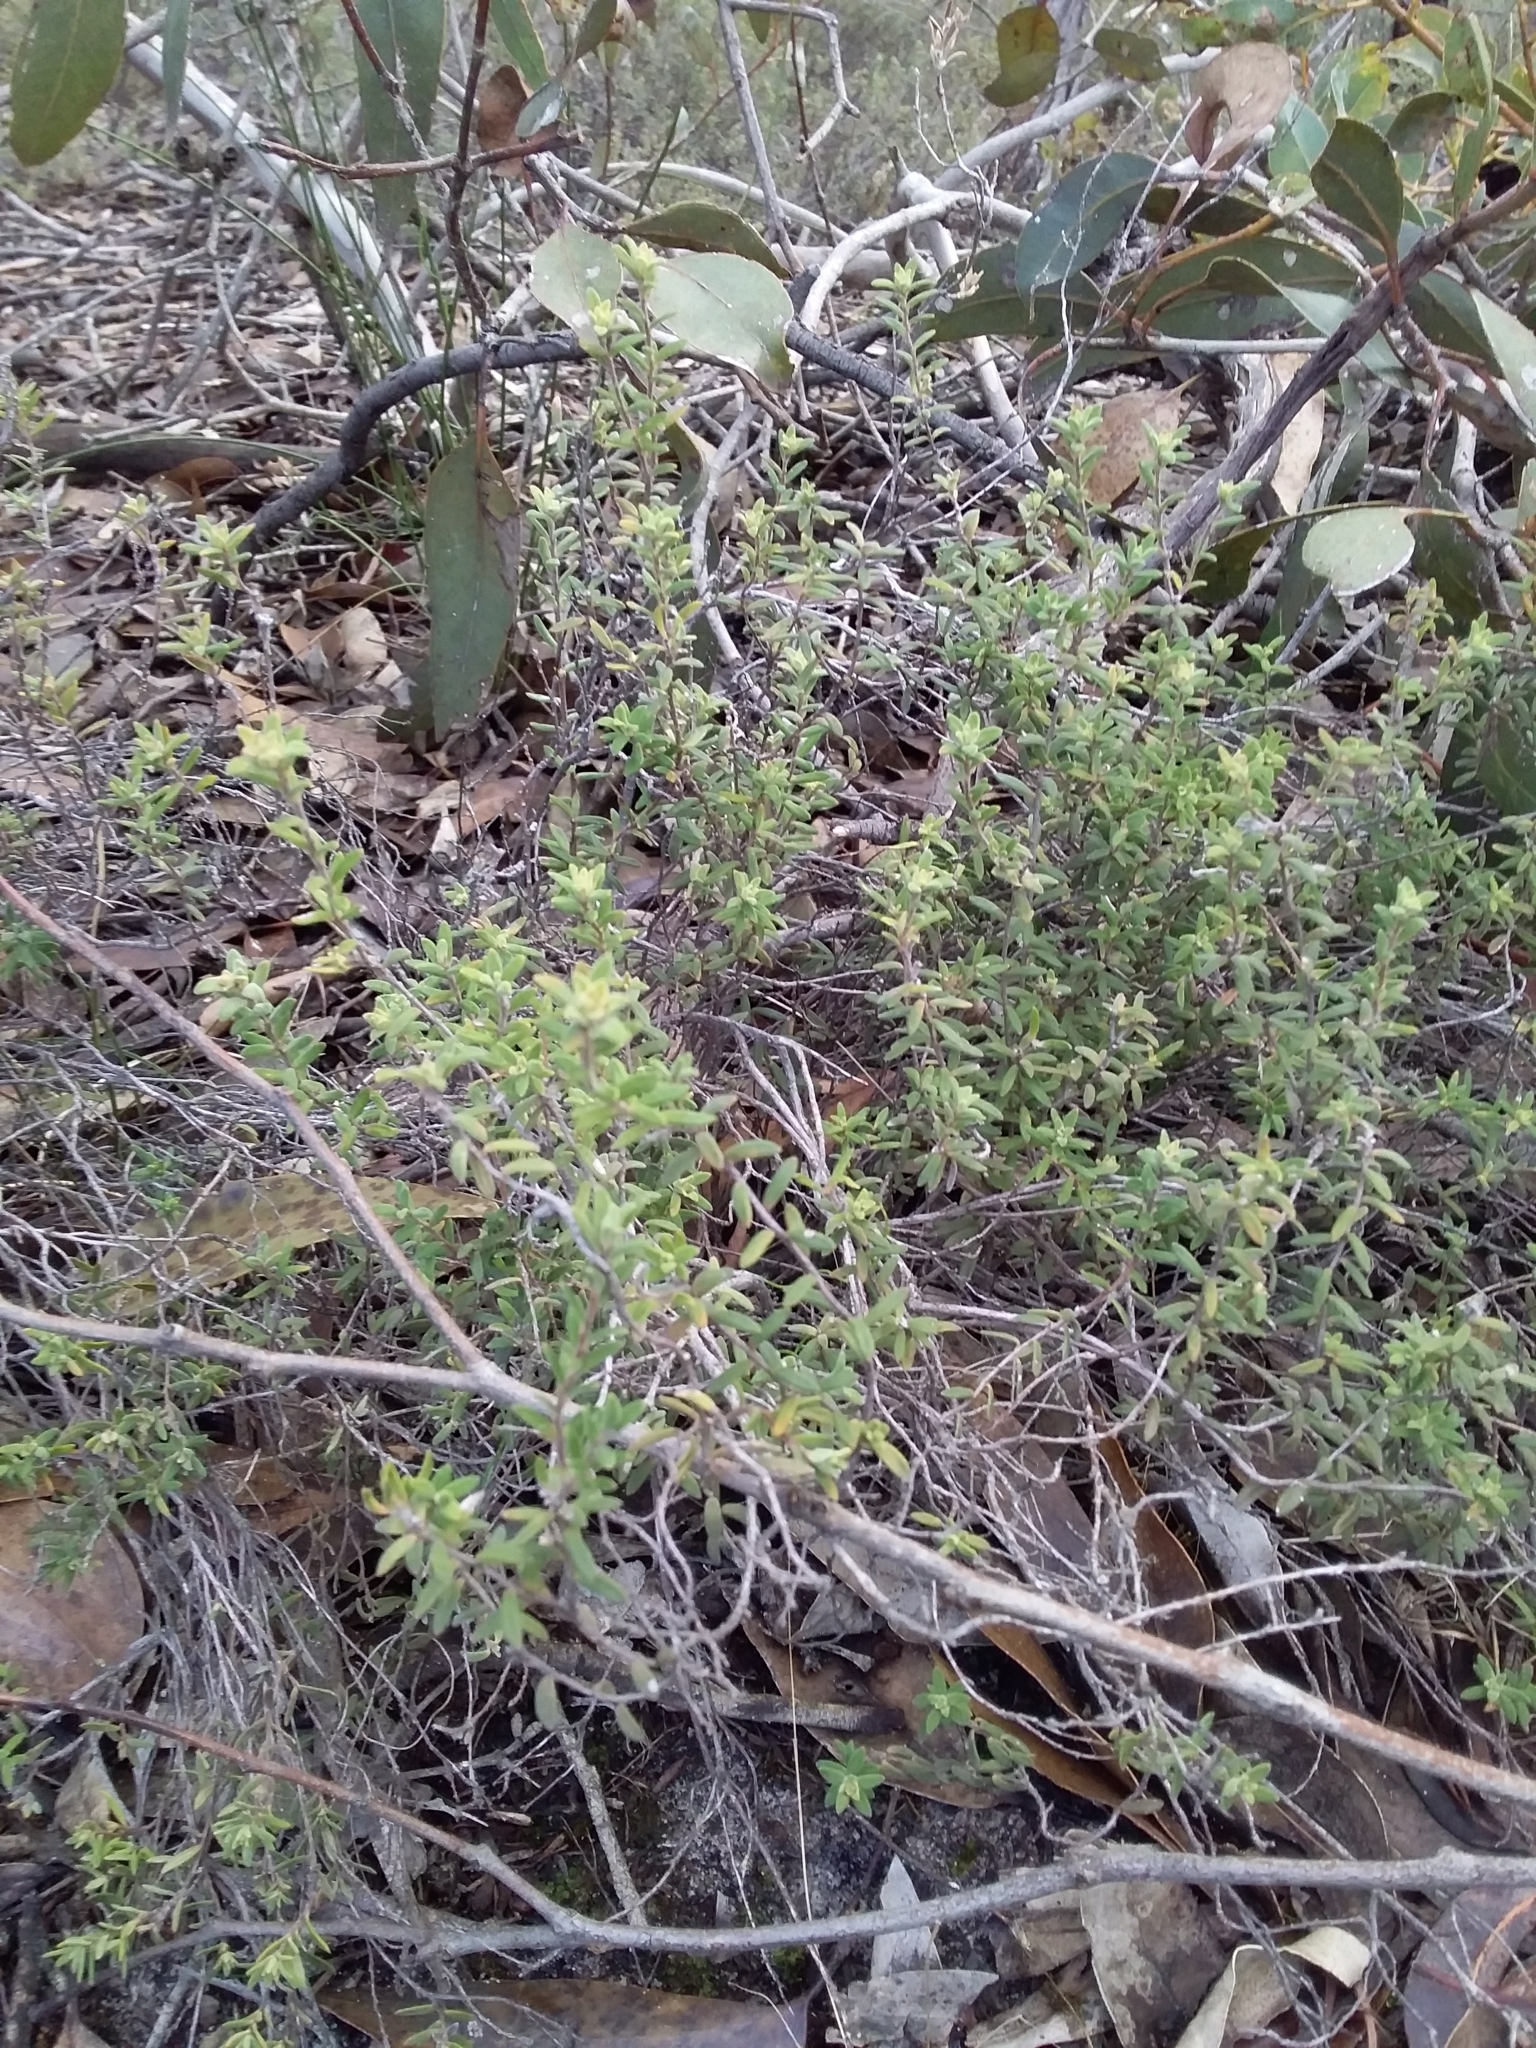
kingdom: Plantae
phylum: Tracheophyta
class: Magnoliopsida
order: Dilleniales
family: Dilleniaceae
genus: Hibbertia
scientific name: Hibbertia crinita
